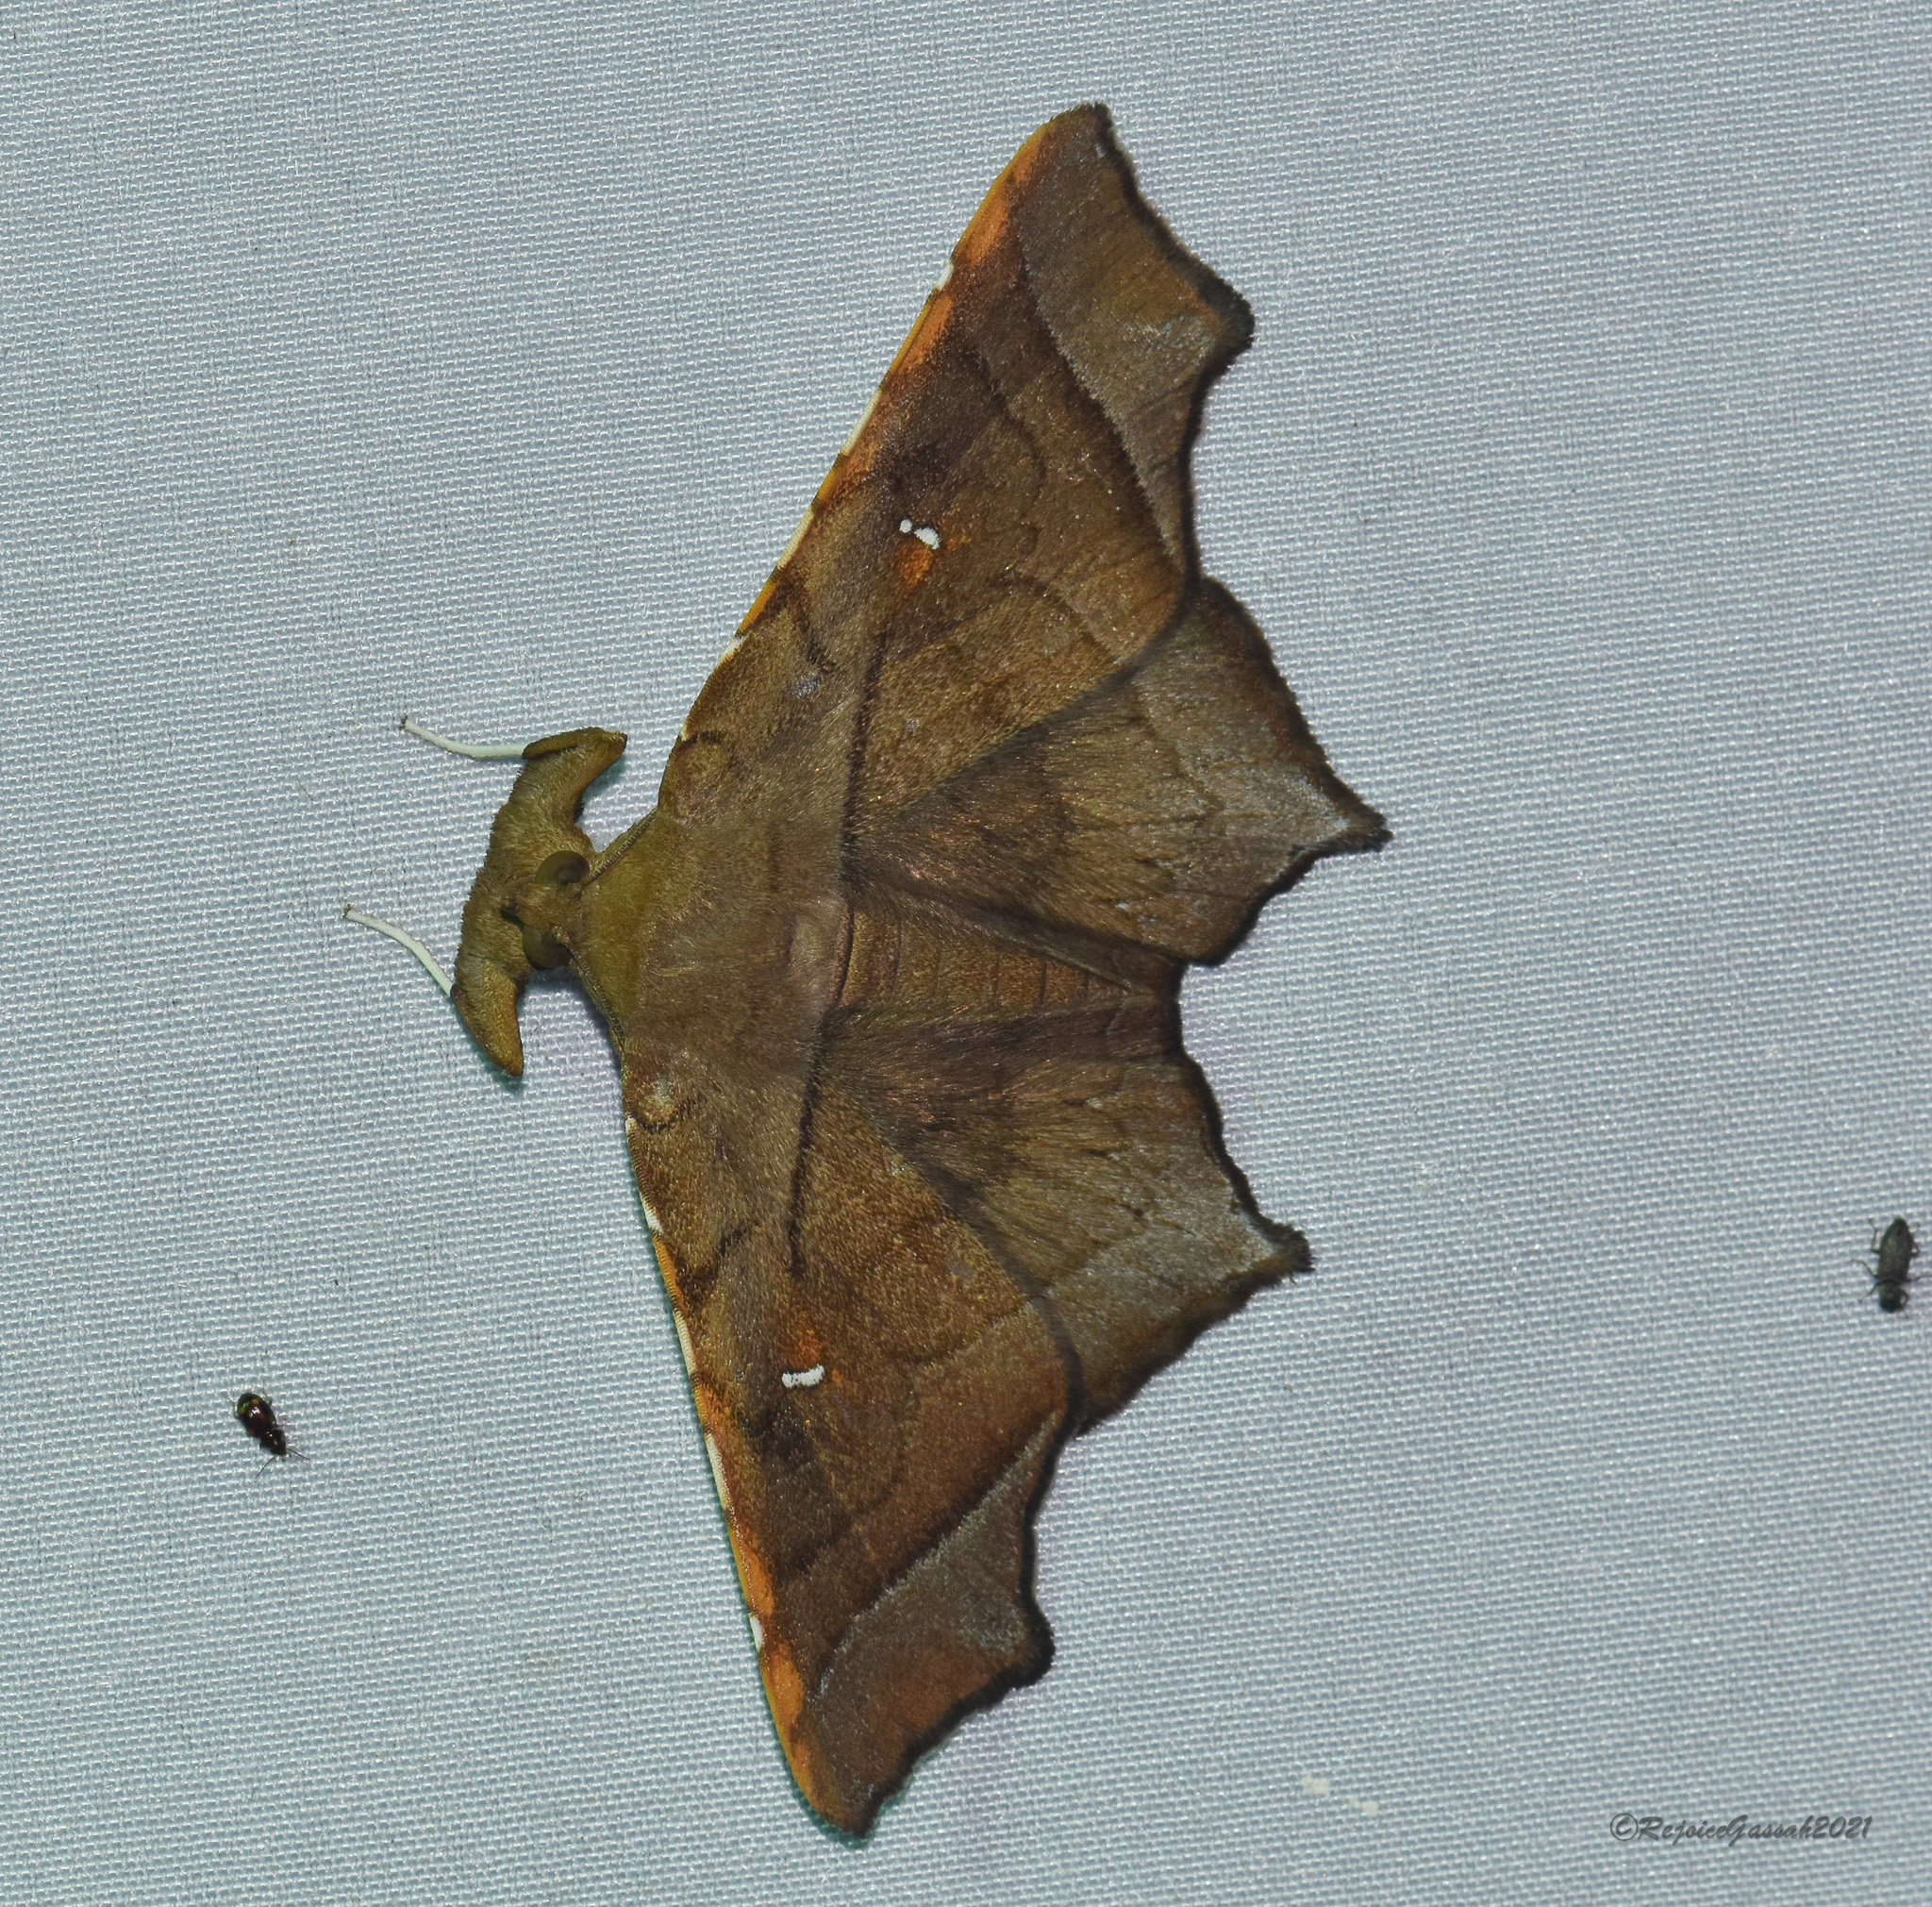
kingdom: Animalia
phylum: Arthropoda
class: Insecta
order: Lepidoptera
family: Erebidae
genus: Episparis
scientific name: Episparis costistriga
